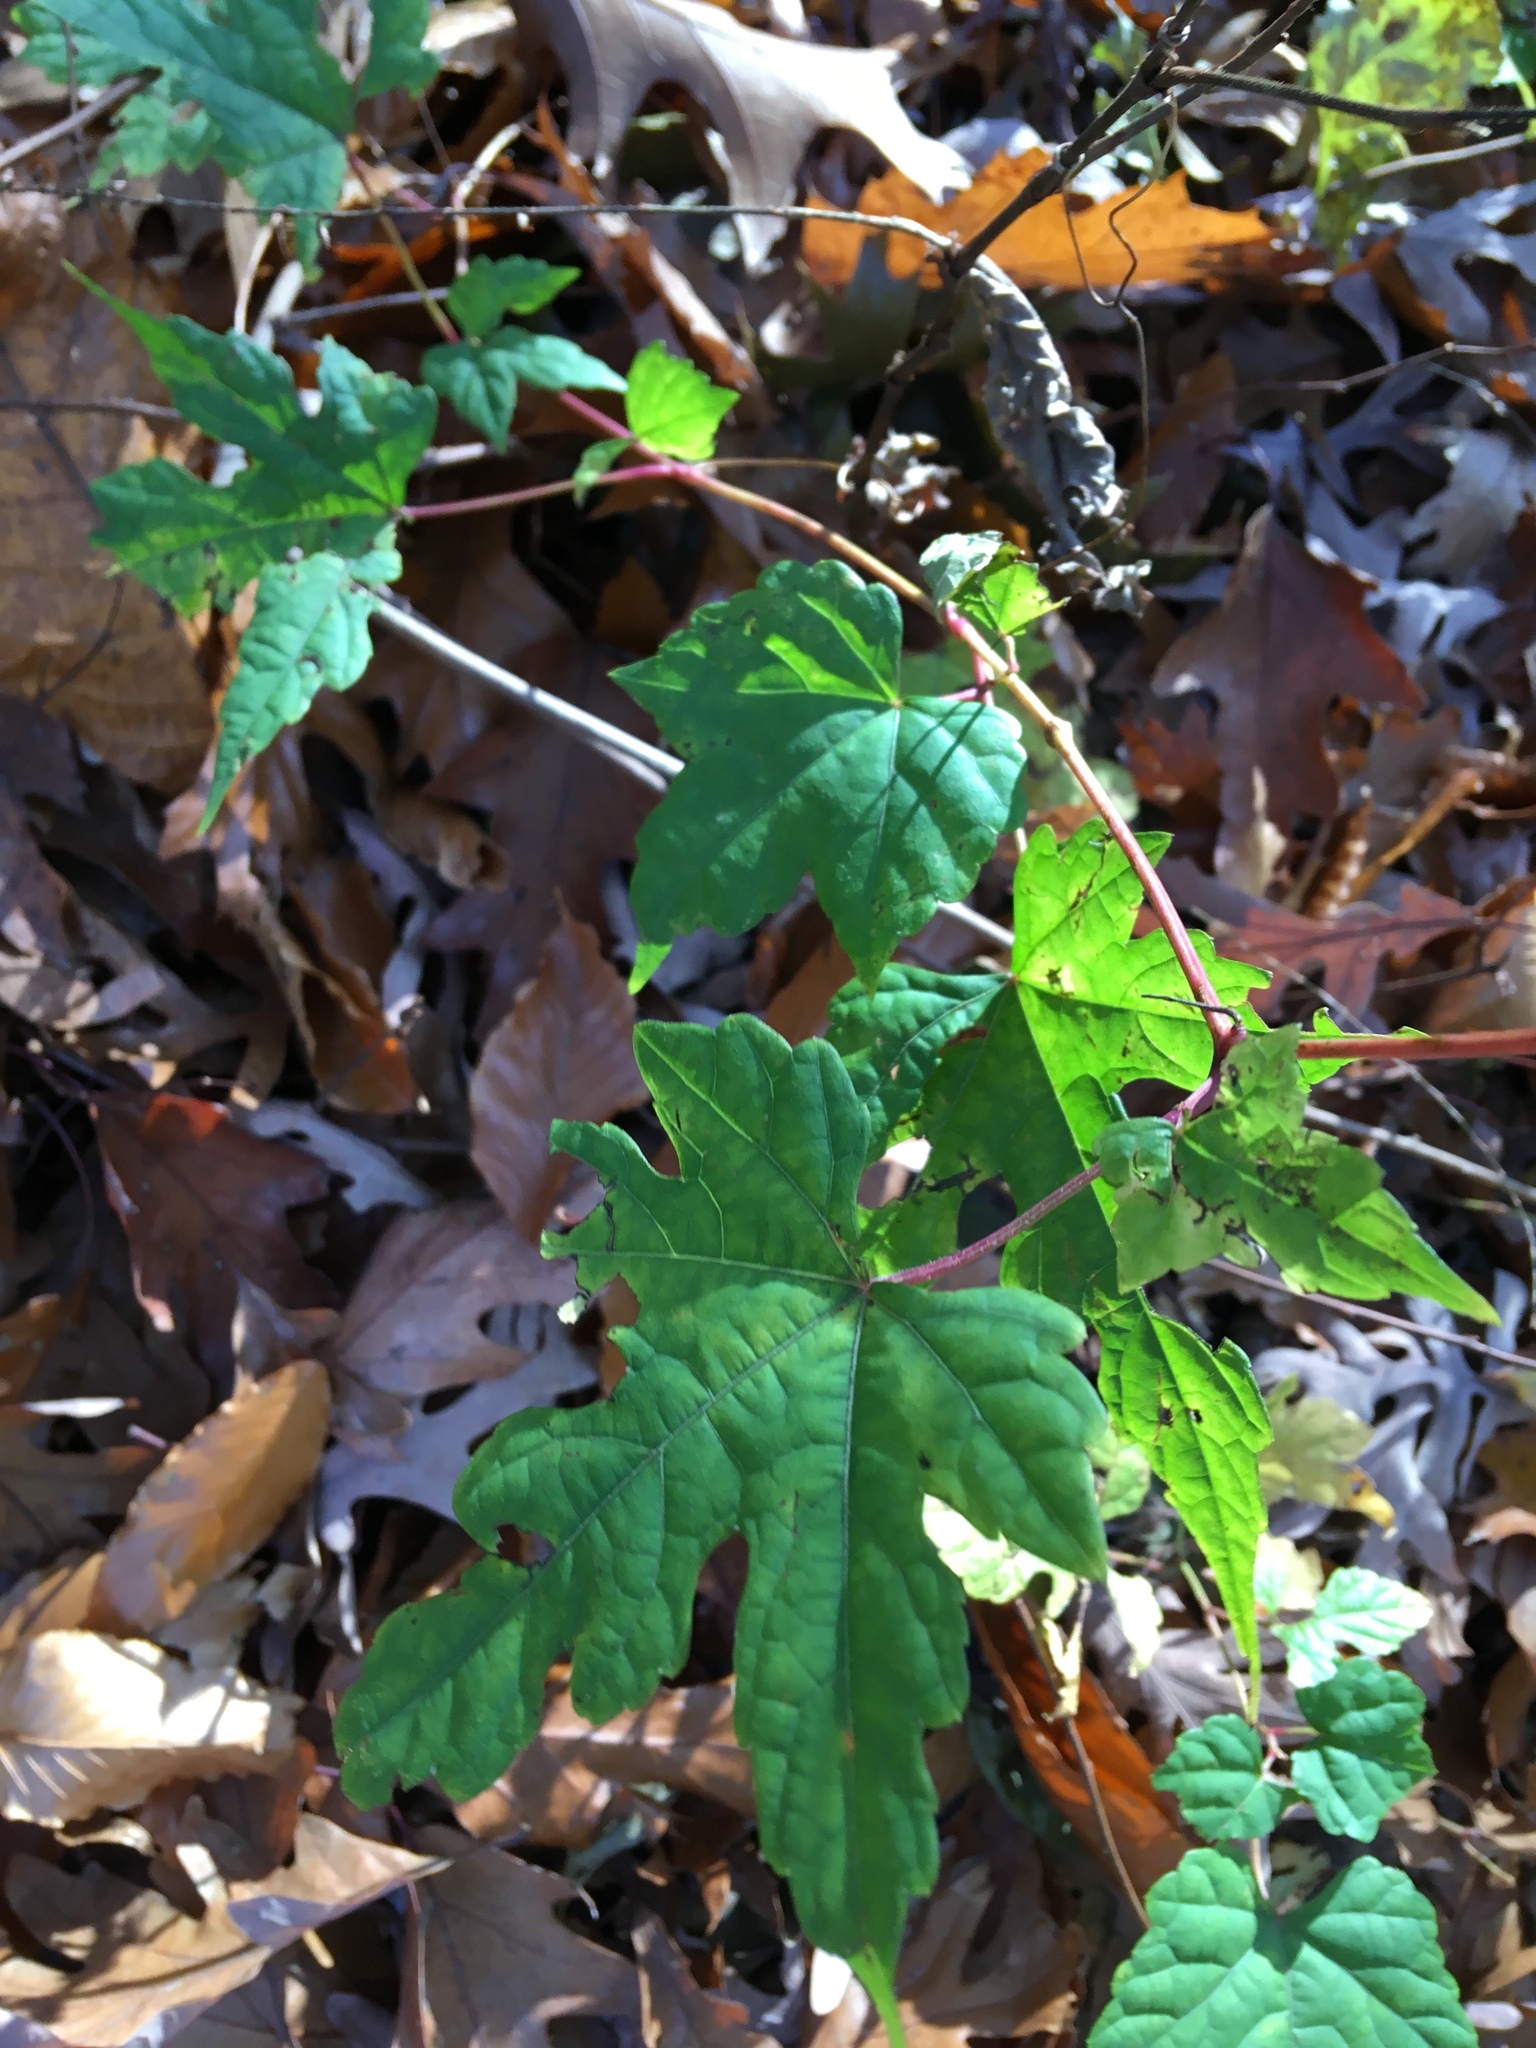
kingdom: Plantae
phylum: Tracheophyta
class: Magnoliopsida
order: Vitales
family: Vitaceae
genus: Ampelopsis
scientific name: Ampelopsis glandulosa
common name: Amur peppervine
